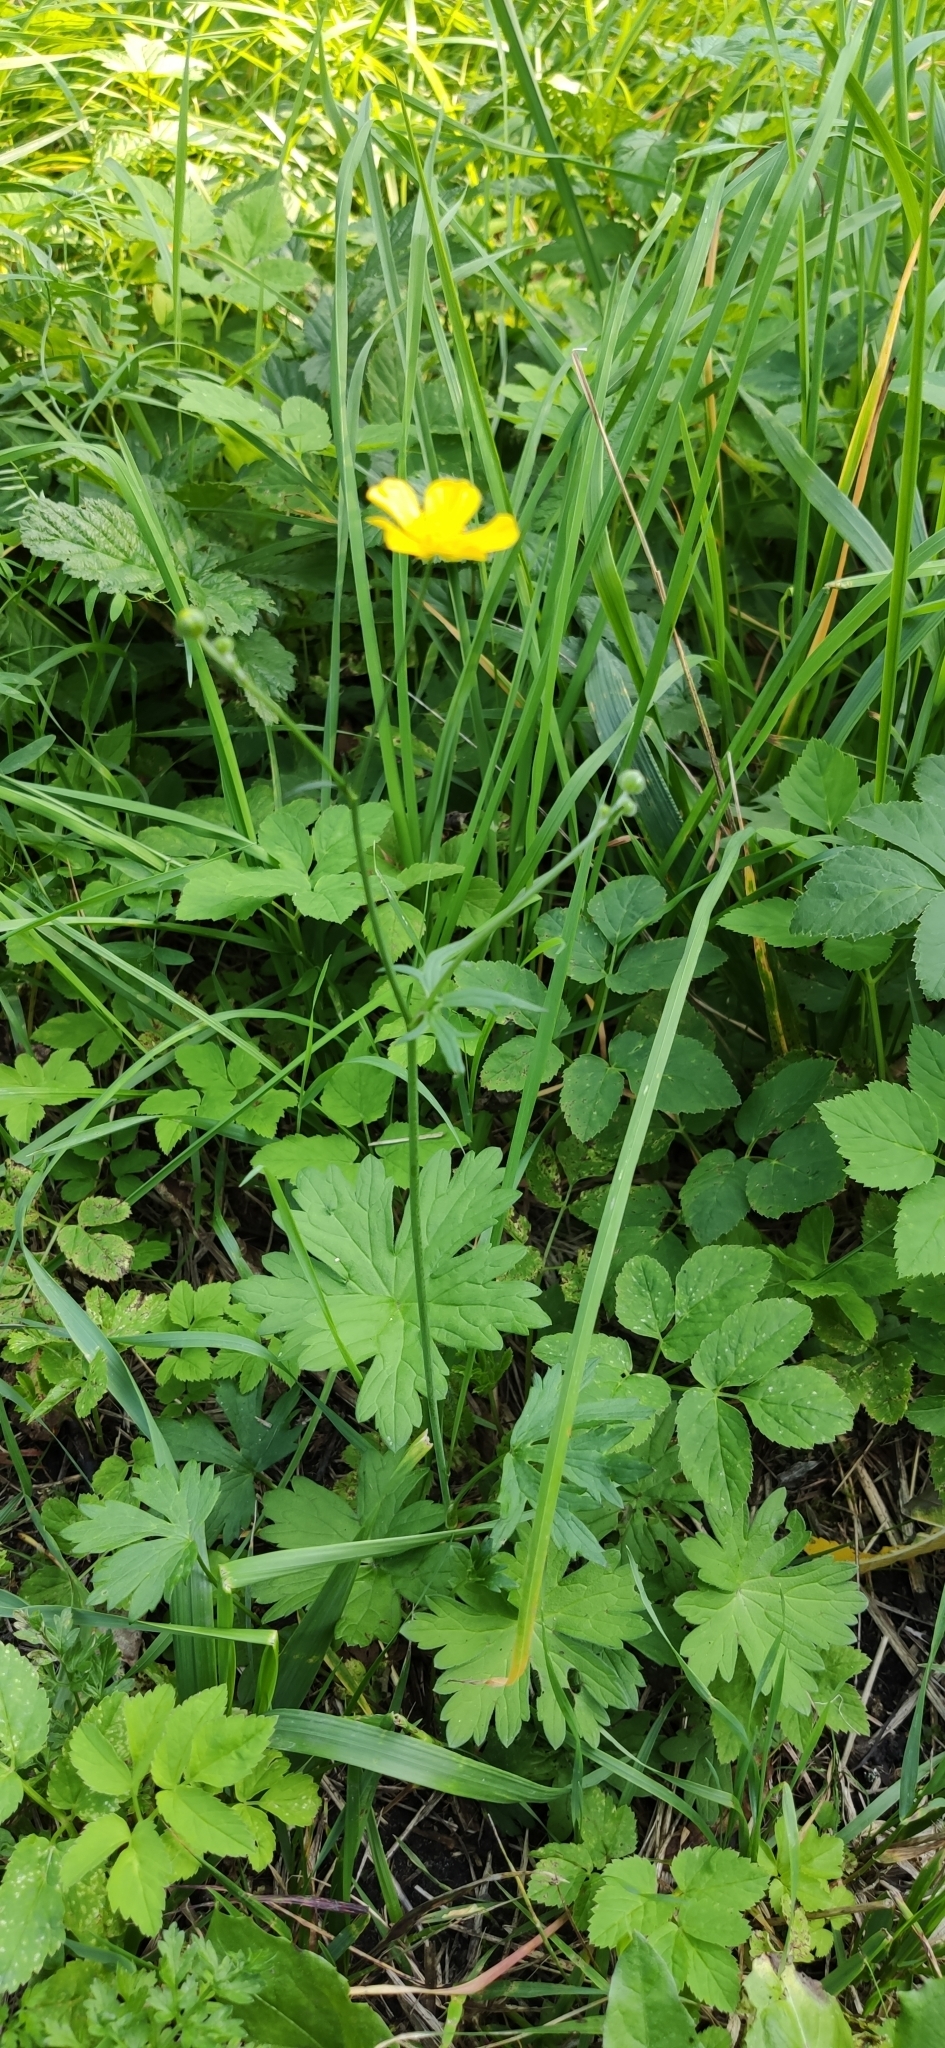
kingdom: Plantae
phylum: Tracheophyta
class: Magnoliopsida
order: Ranunculales
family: Ranunculaceae
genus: Ranunculus
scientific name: Ranunculus acris
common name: Meadow buttercup
